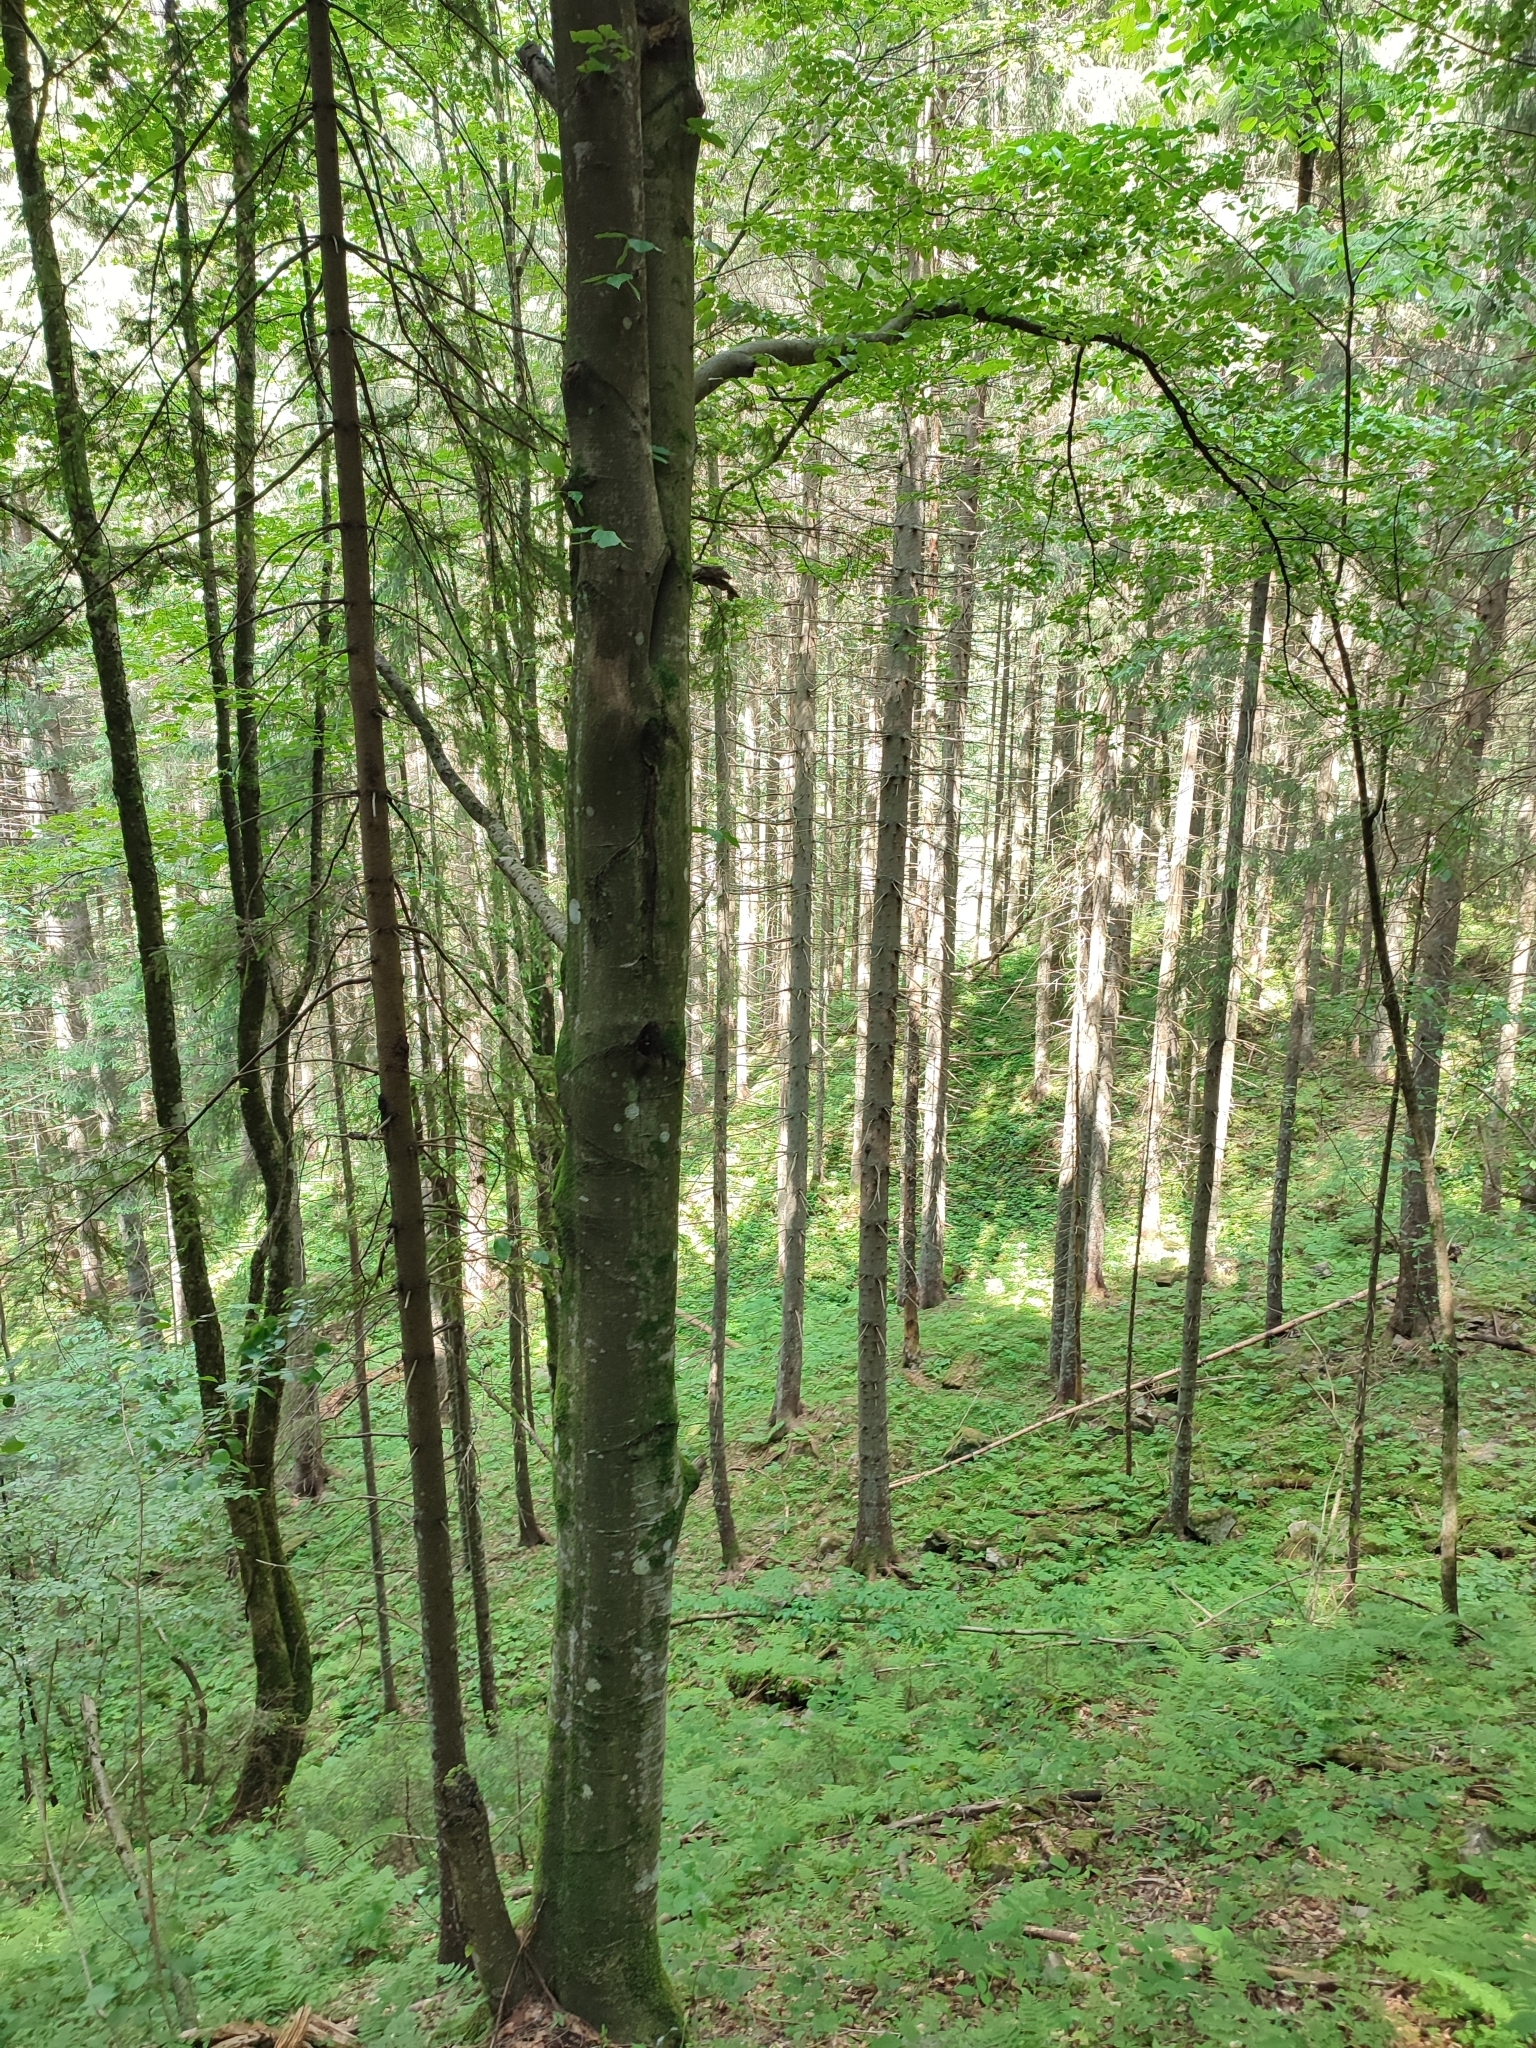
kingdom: Plantae
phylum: Tracheophyta
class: Magnoliopsida
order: Fagales
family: Fagaceae
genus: Fagus
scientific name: Fagus sylvatica
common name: Beech
